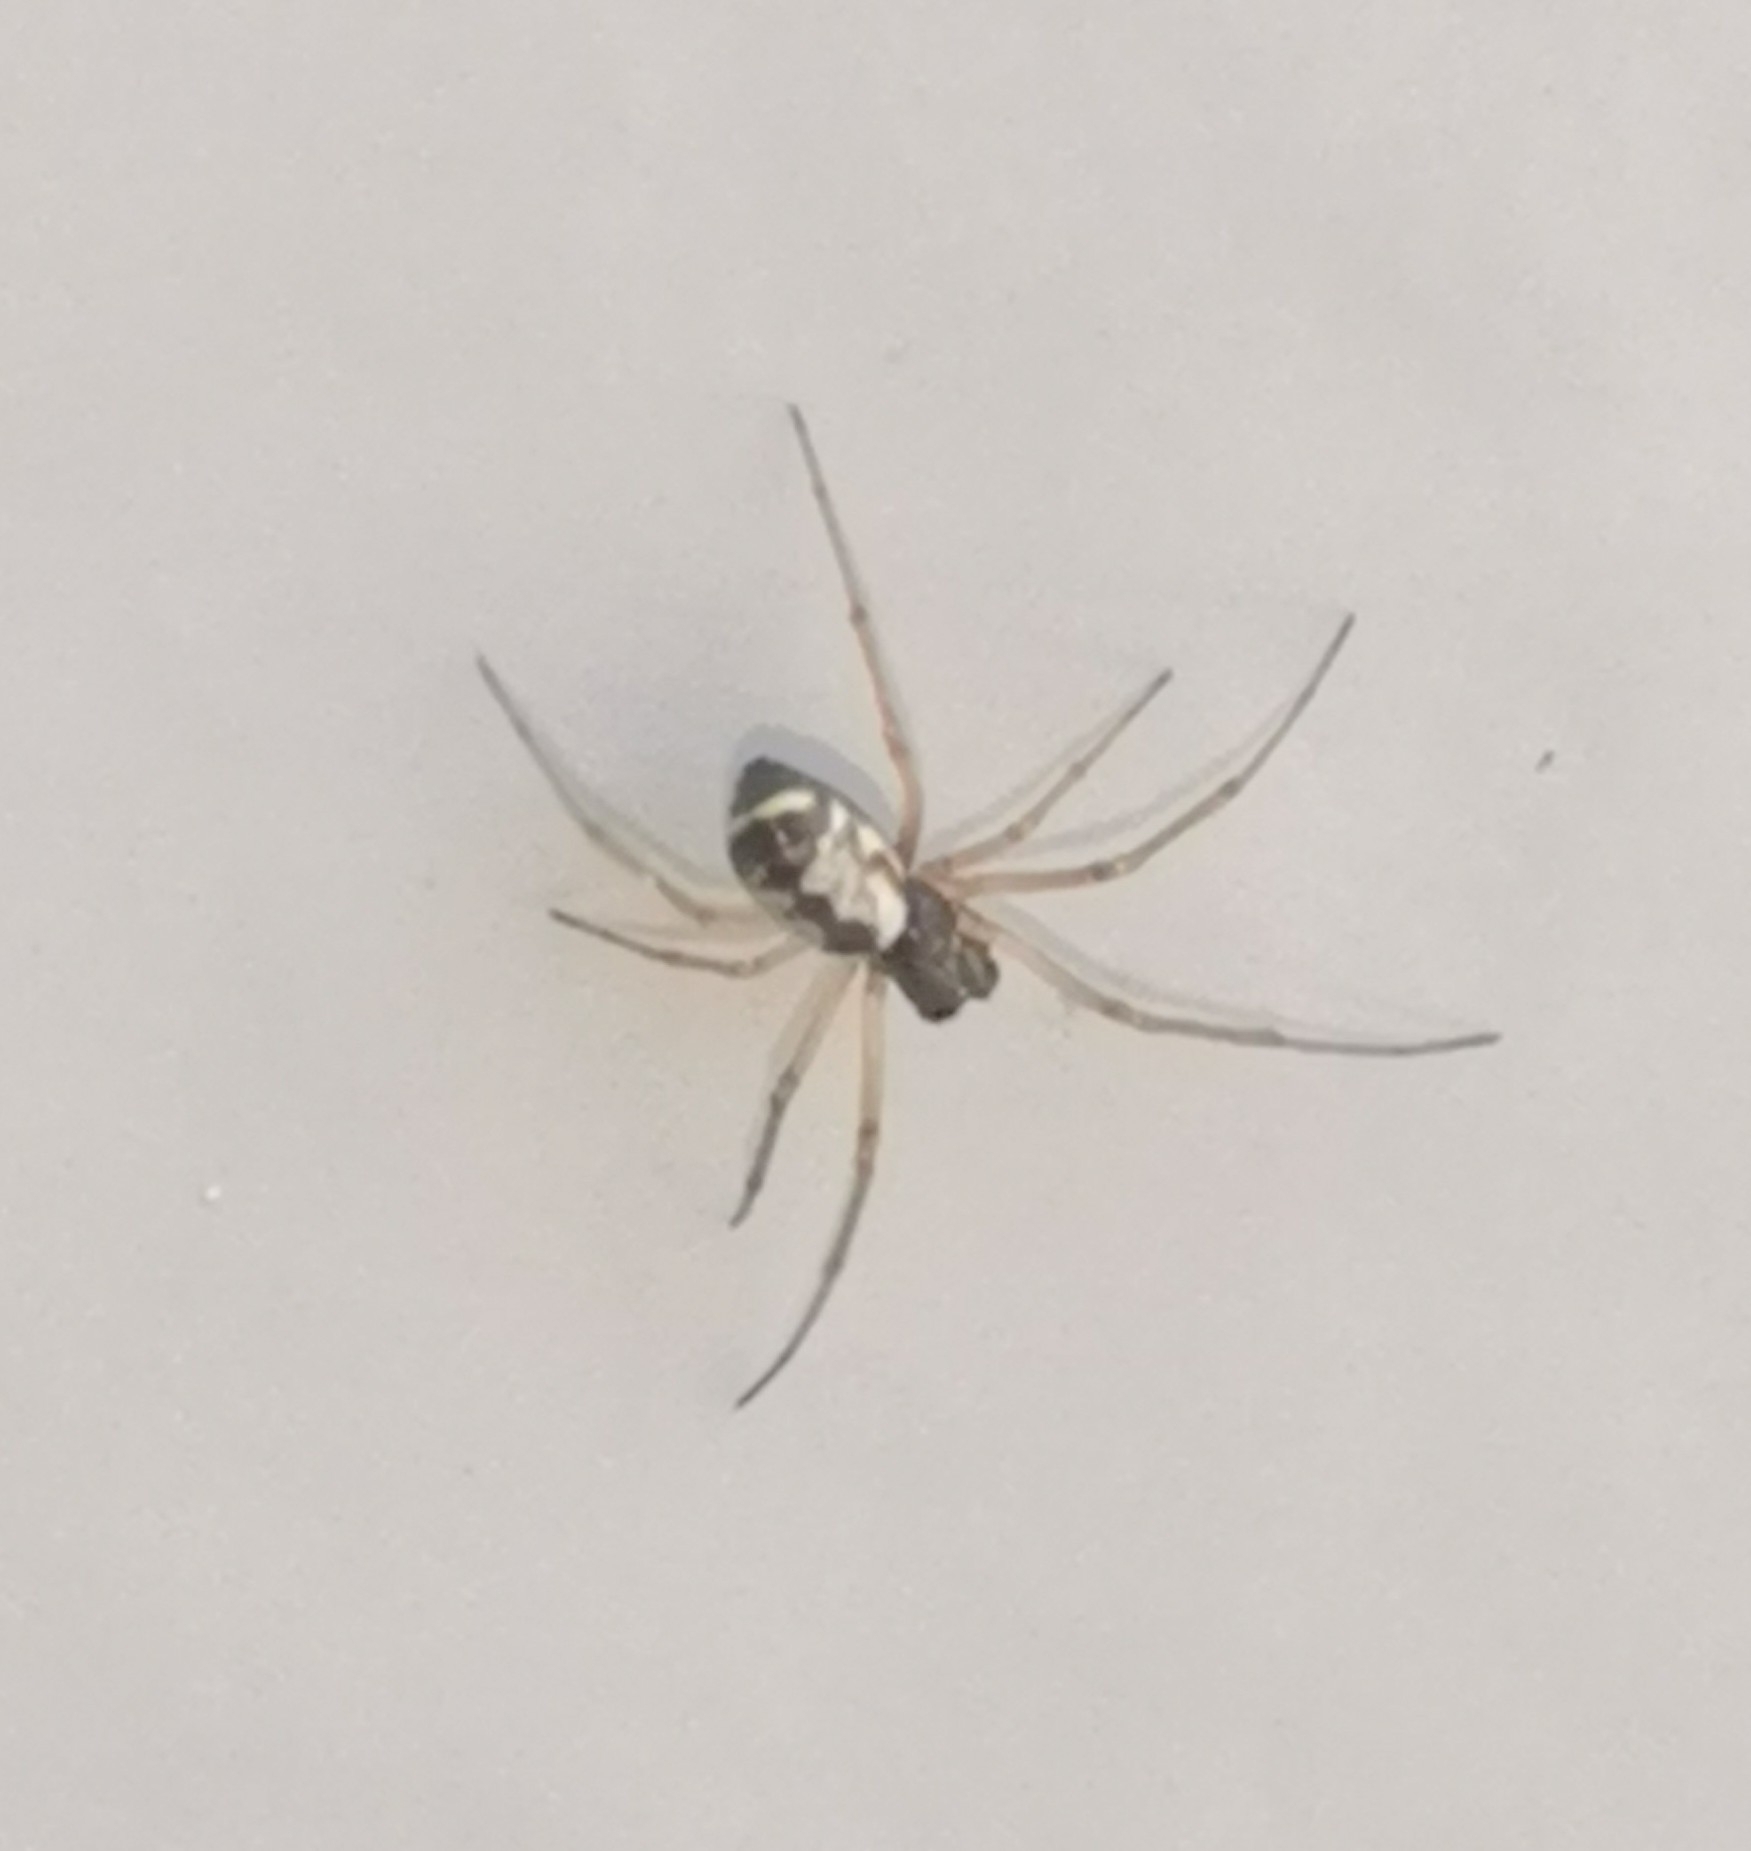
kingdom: Animalia
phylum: Arthropoda
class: Arachnida
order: Araneae
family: Linyphiidae
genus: Microlinyphia
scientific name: Microlinyphia pusilla
